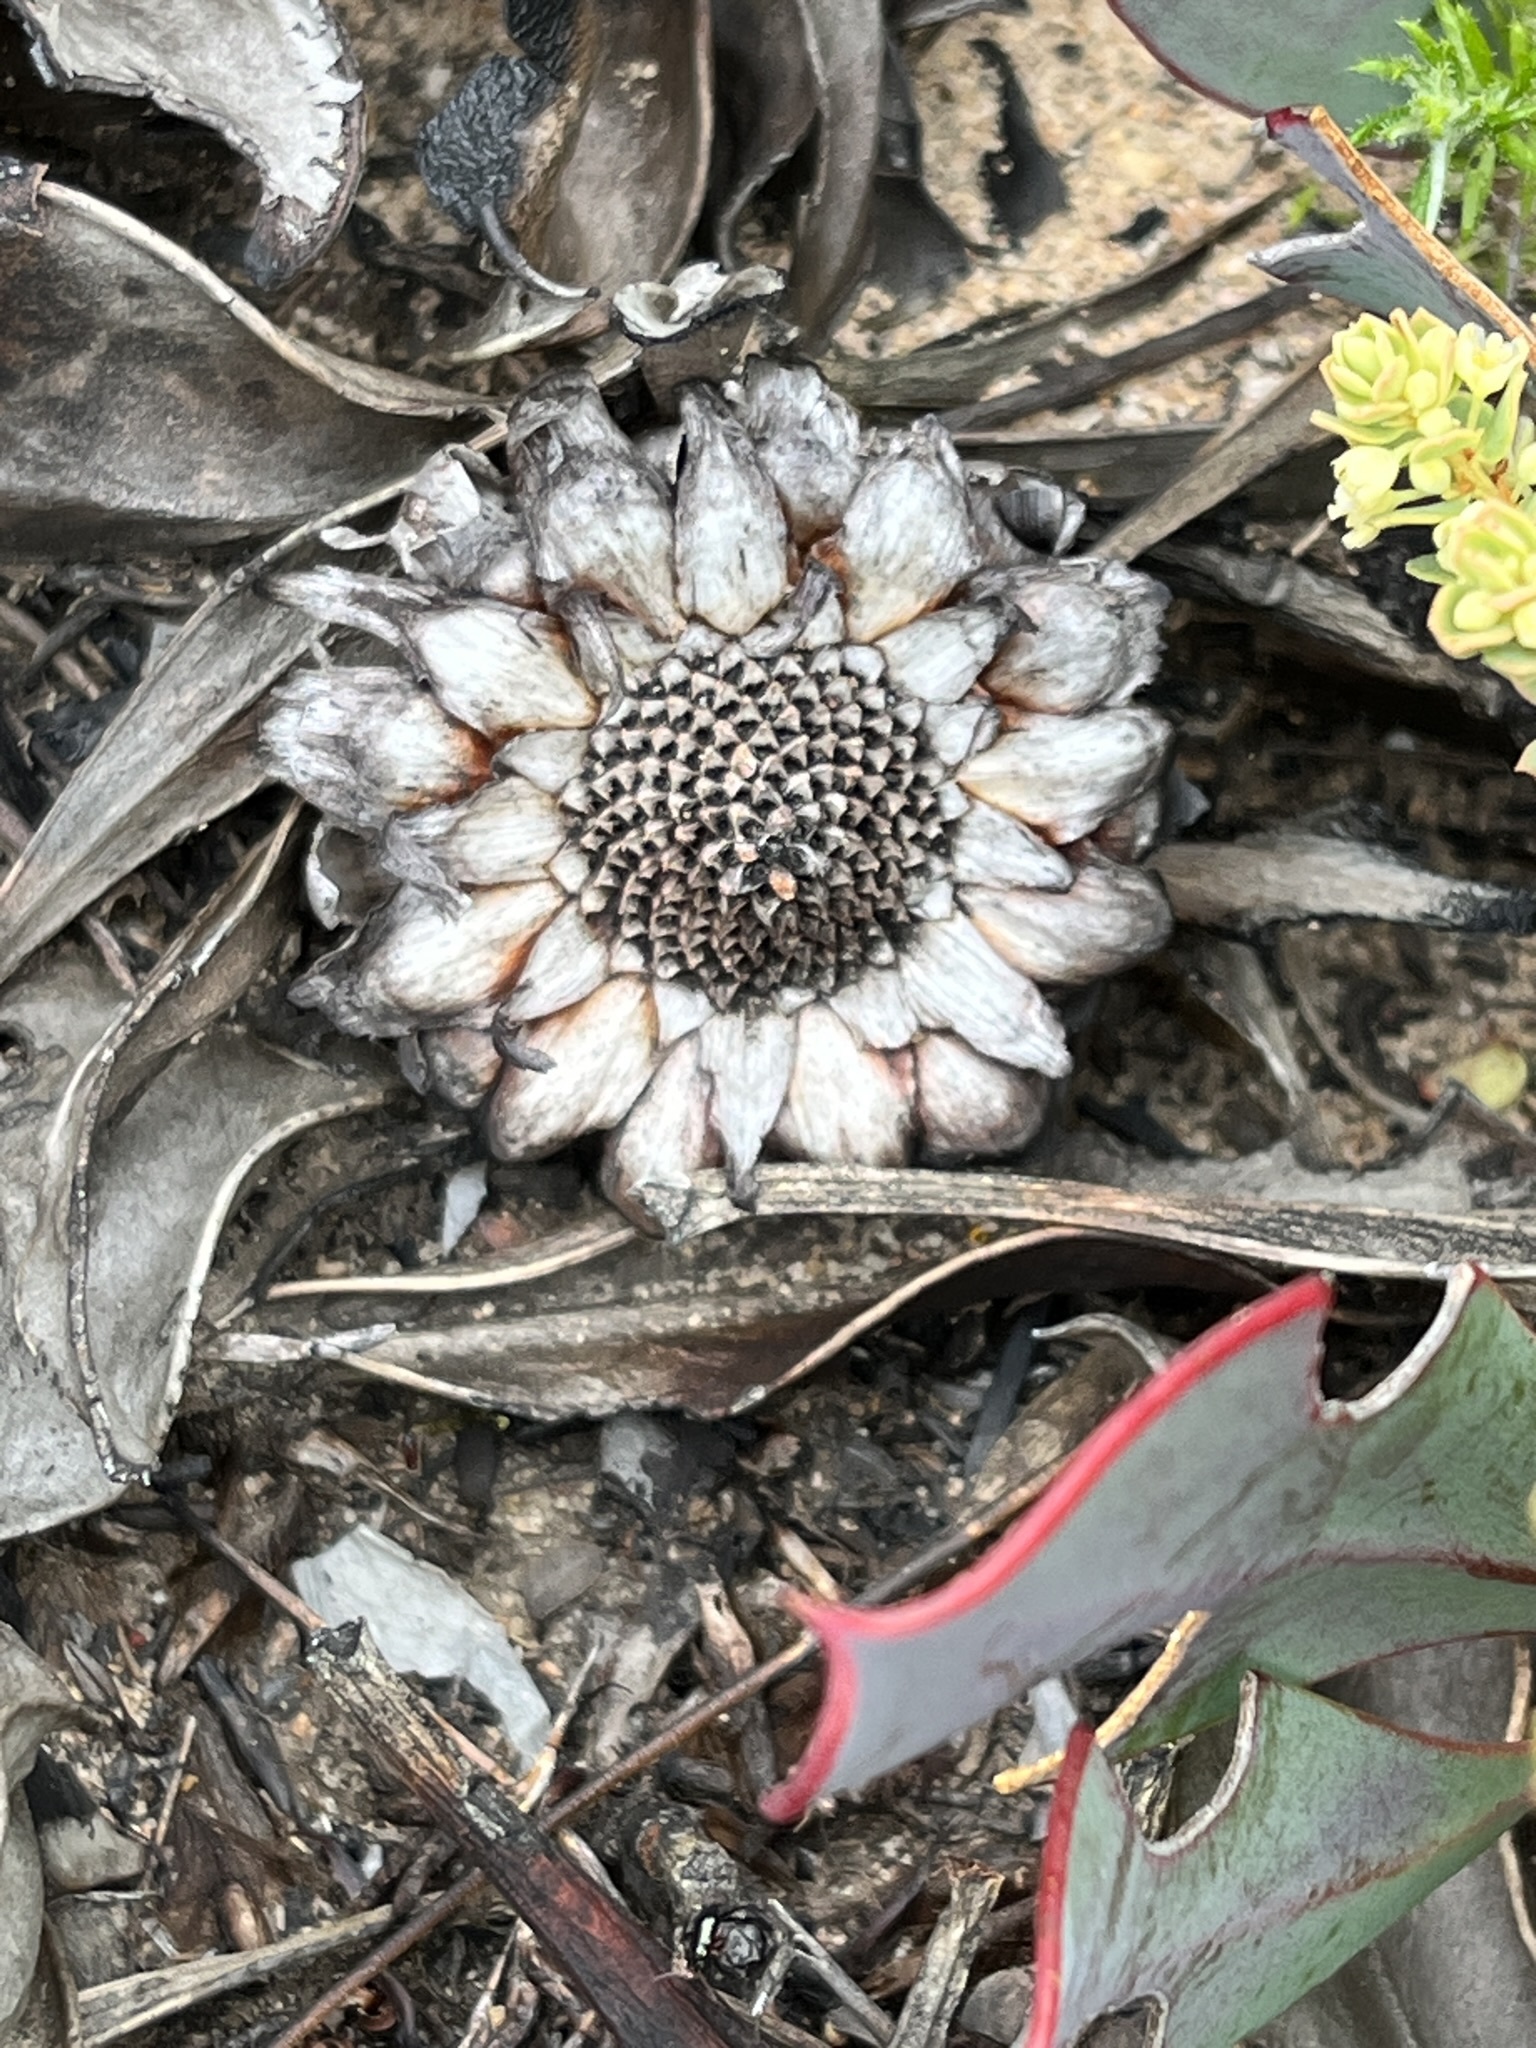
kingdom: Plantae
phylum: Tracheophyta
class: Magnoliopsida
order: Proteales
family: Proteaceae
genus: Protea
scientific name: Protea acaulos
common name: Common ground sugarbush
